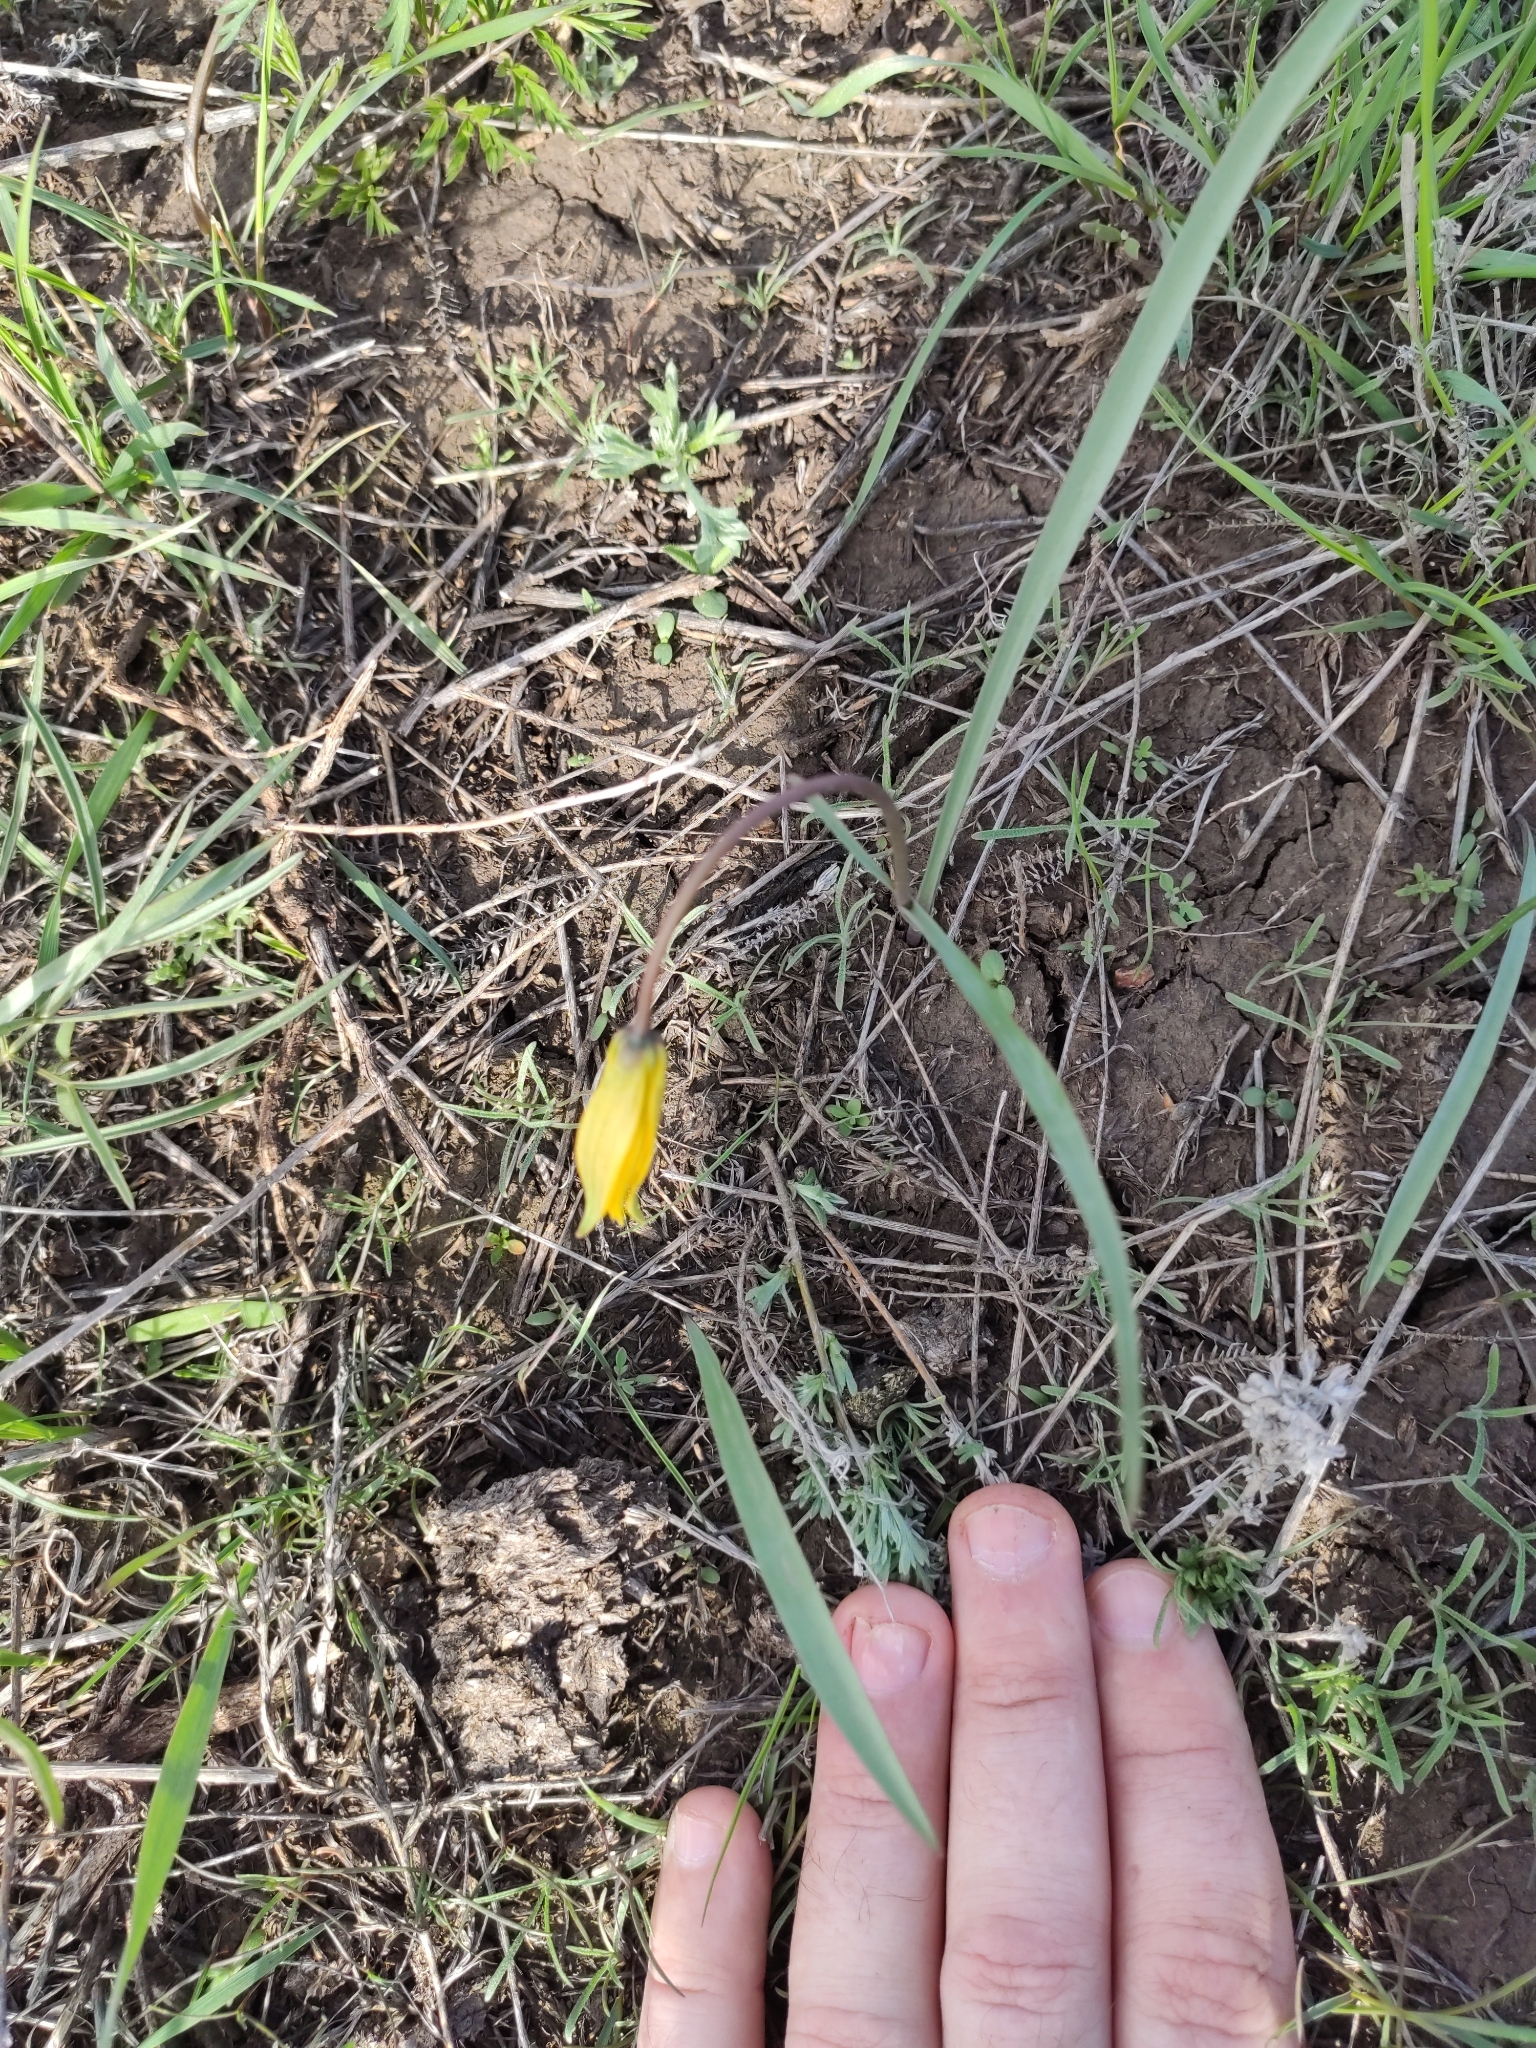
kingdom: Plantae
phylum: Tracheophyta
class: Liliopsida
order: Liliales
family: Liliaceae
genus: Tulipa
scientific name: Tulipa sylvestris
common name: Wild tulip
